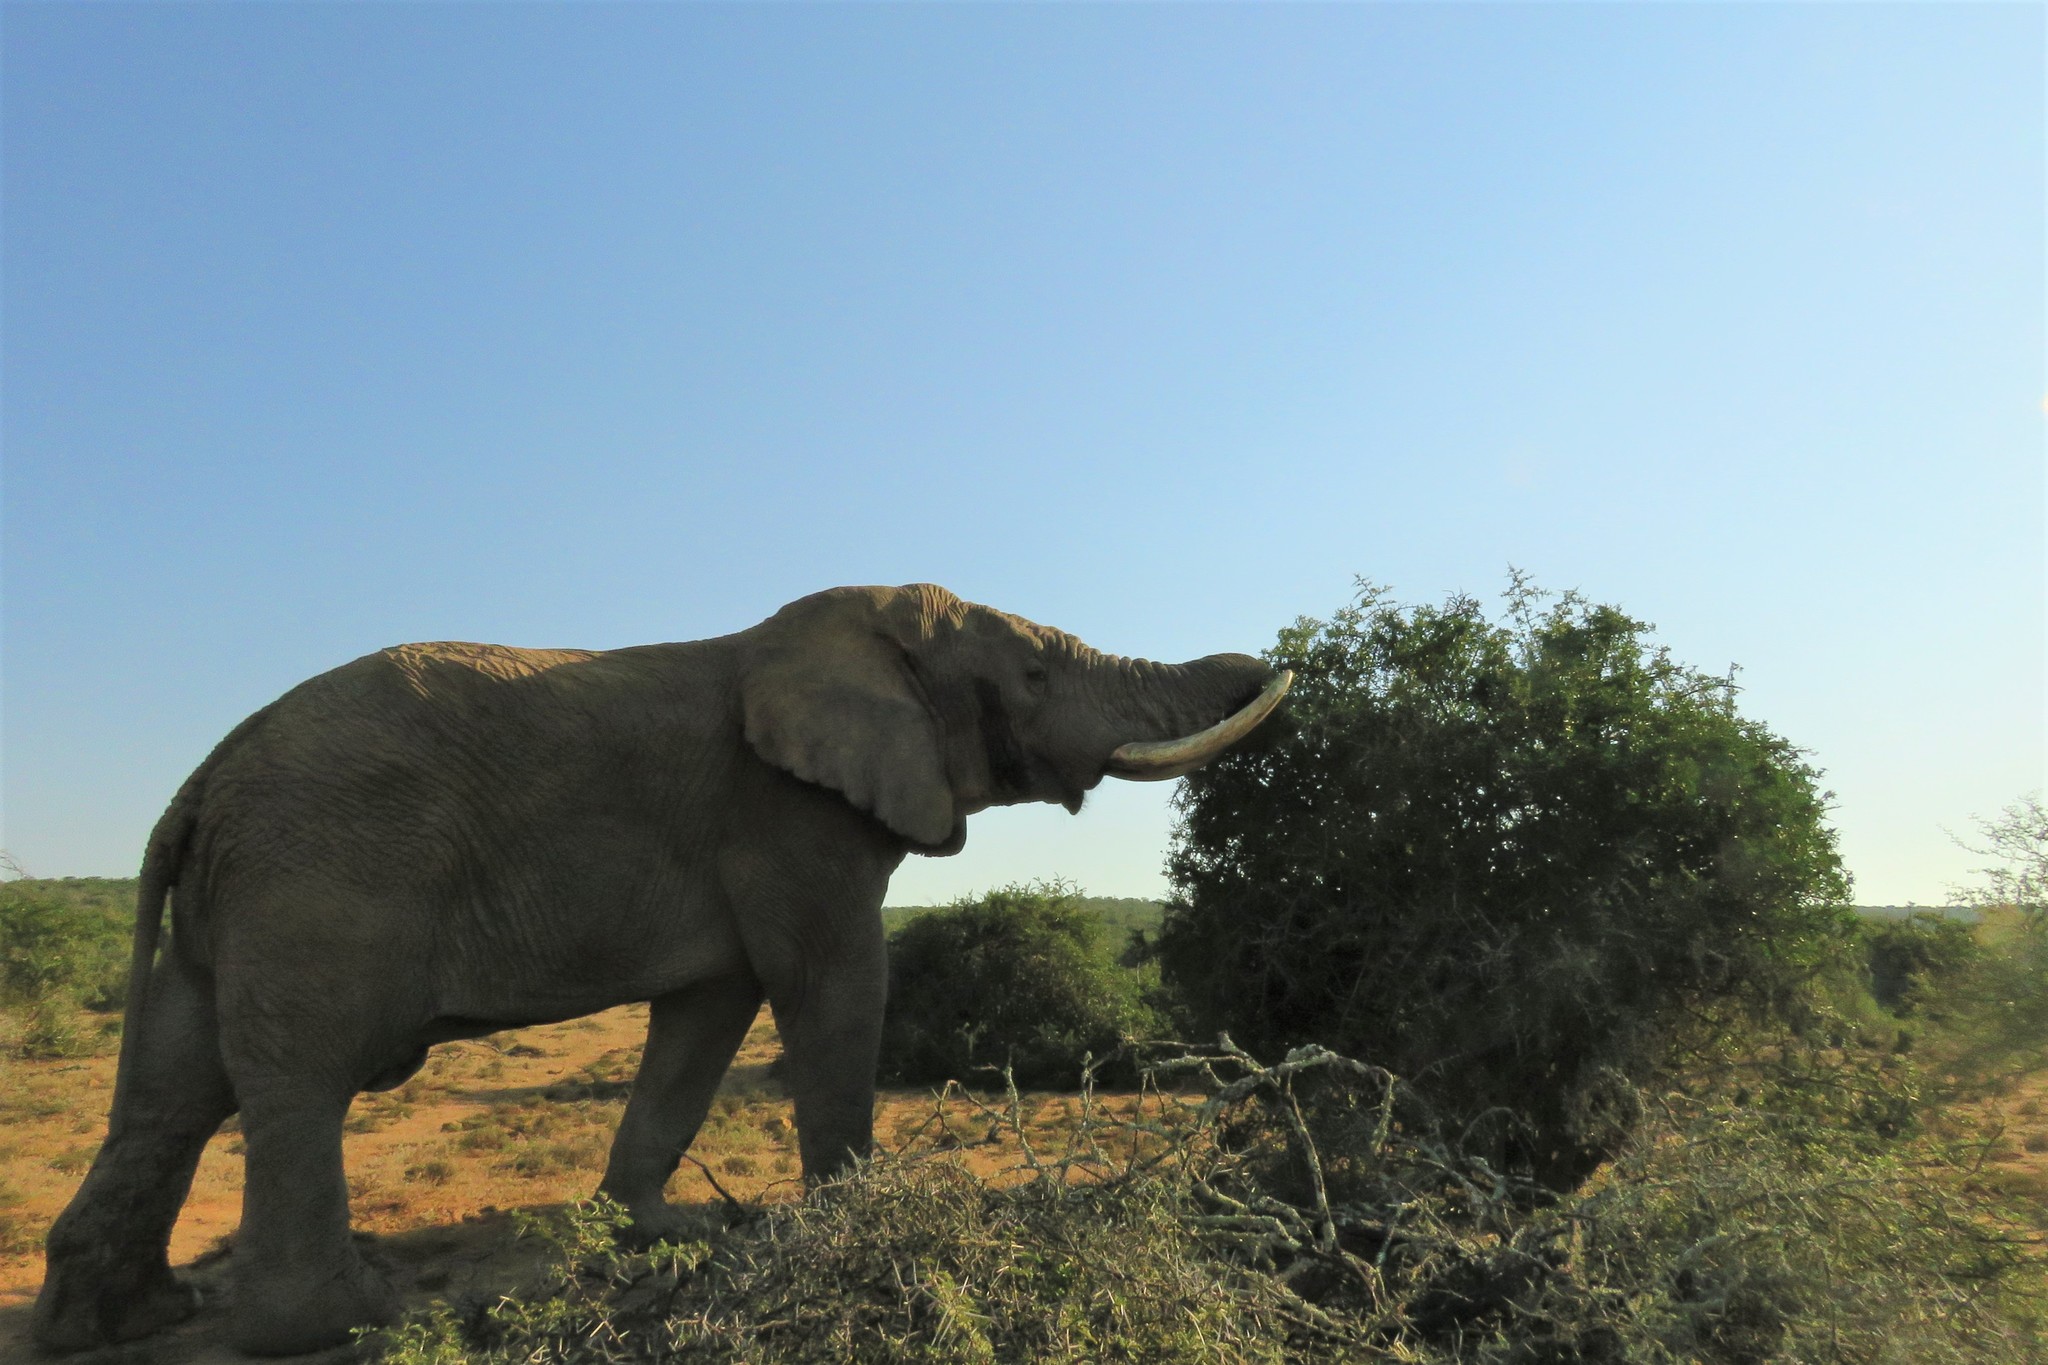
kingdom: Animalia
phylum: Chordata
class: Mammalia
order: Proboscidea
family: Elephantidae
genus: Loxodonta
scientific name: Loxodonta africana
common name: African elephant
